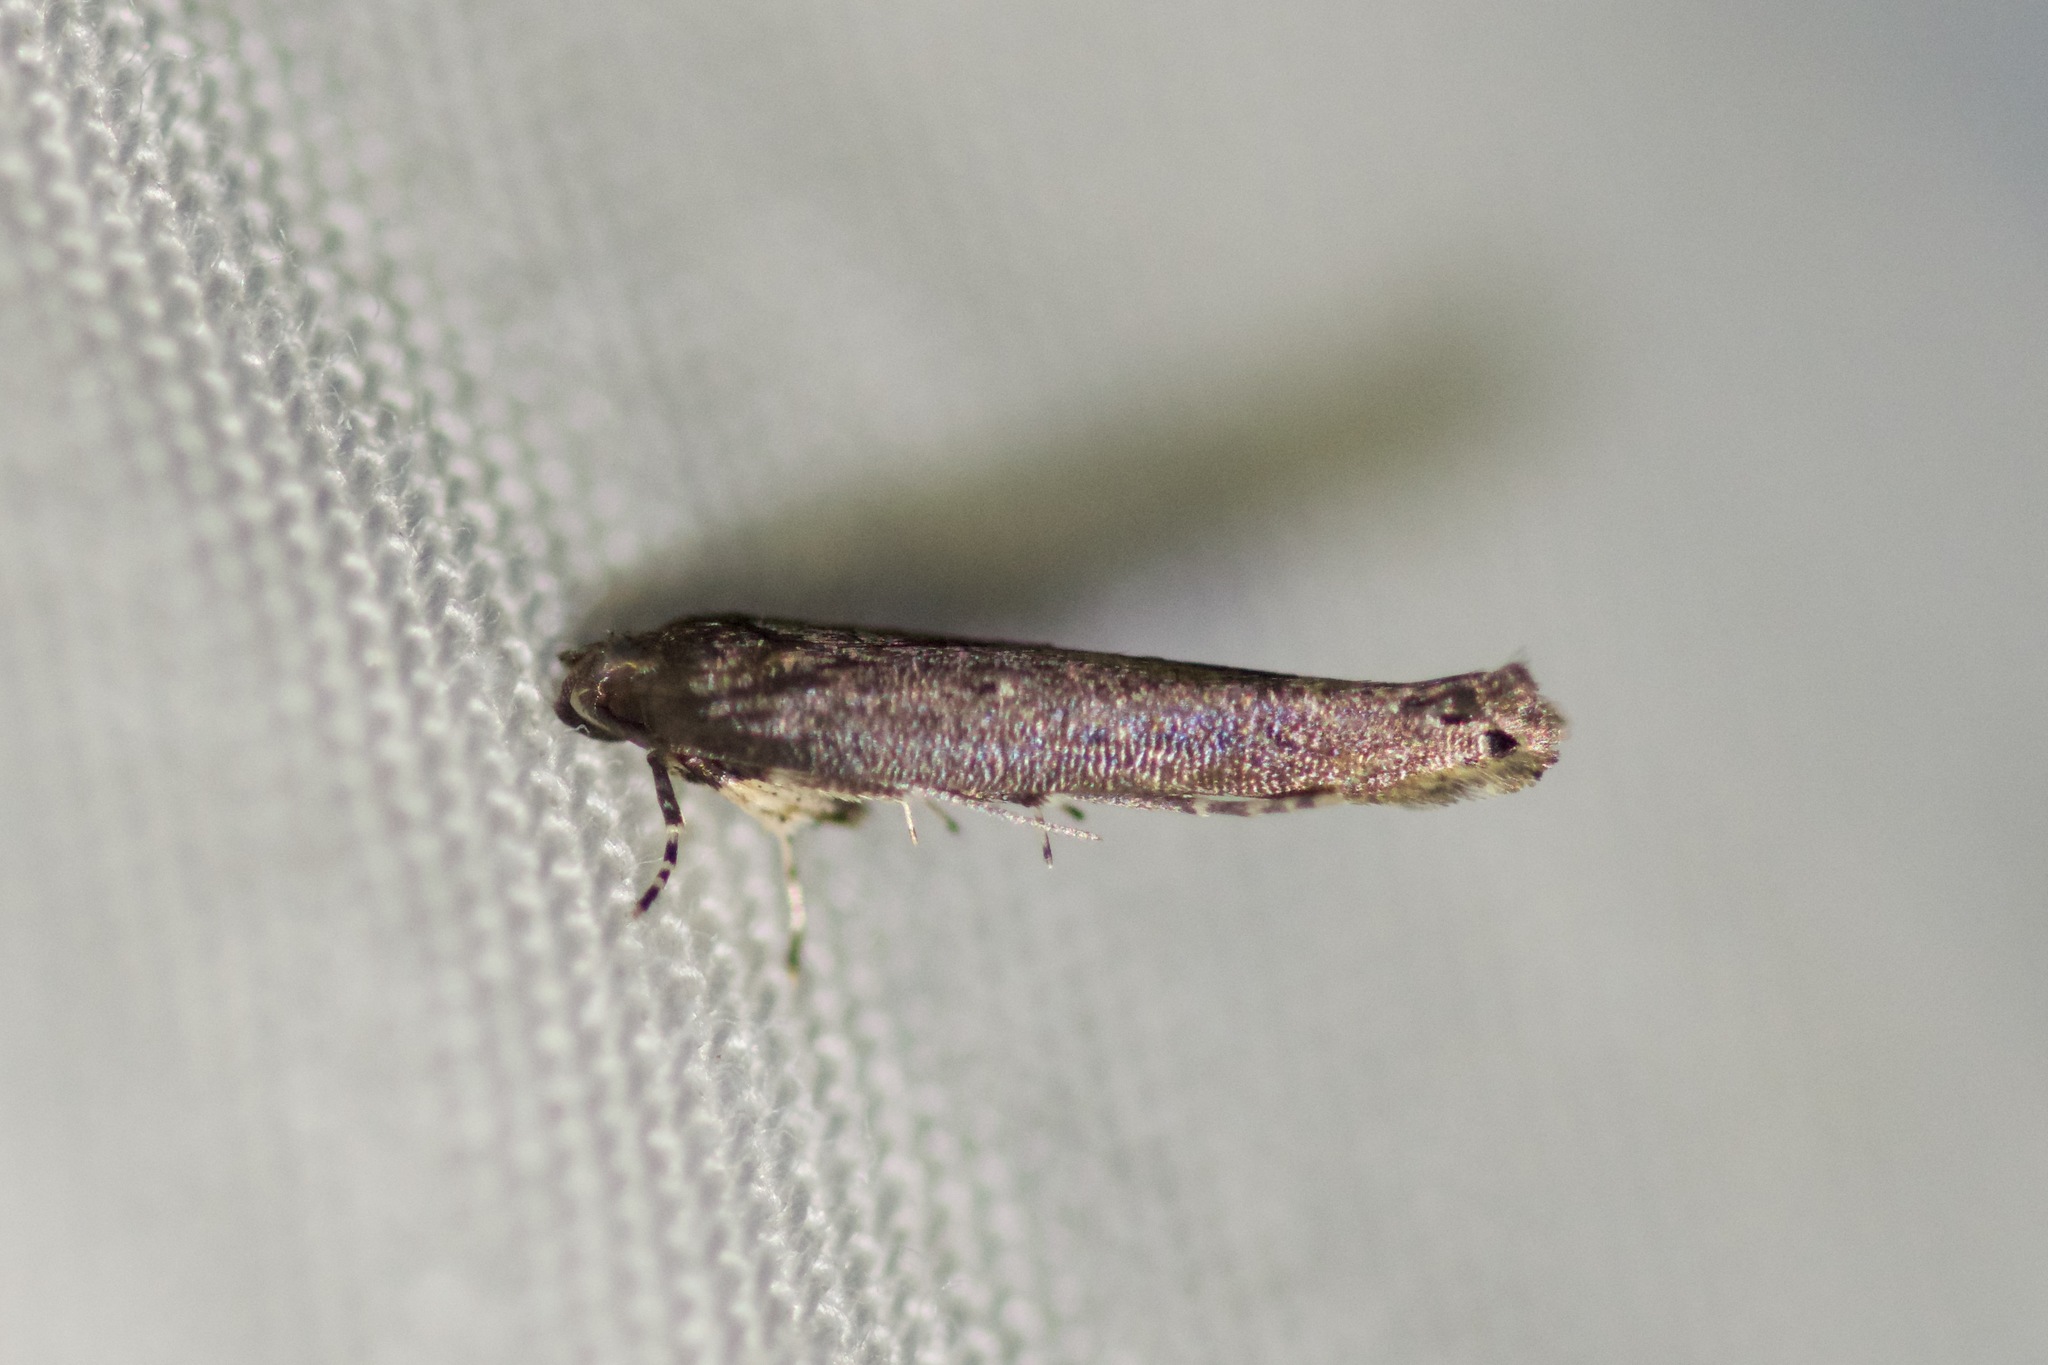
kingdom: Animalia
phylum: Arthropoda
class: Insecta
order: Lepidoptera
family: Cosmopterigidae
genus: Ithome
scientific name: Ithome erransella
